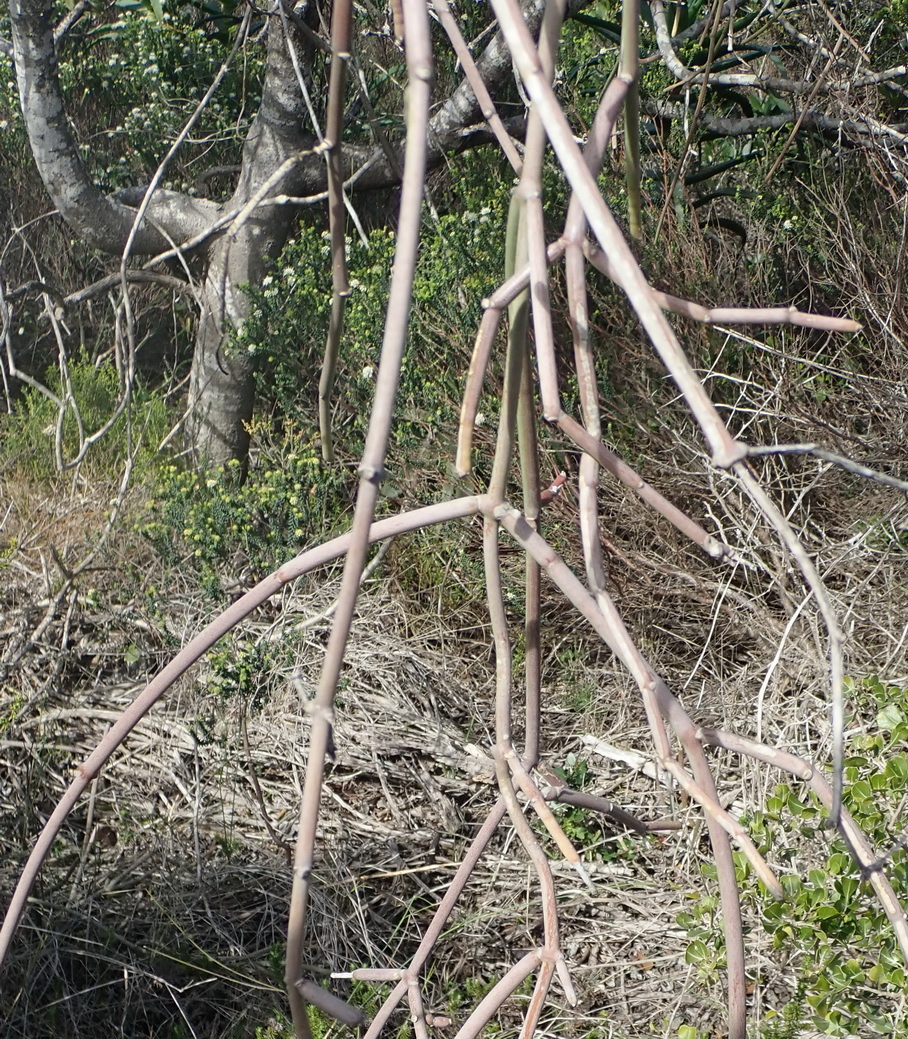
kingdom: Plantae
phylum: Tracheophyta
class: Magnoliopsida
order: Gentianales
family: Apocynaceae
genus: Cynanchum
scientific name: Cynanchum viminale
